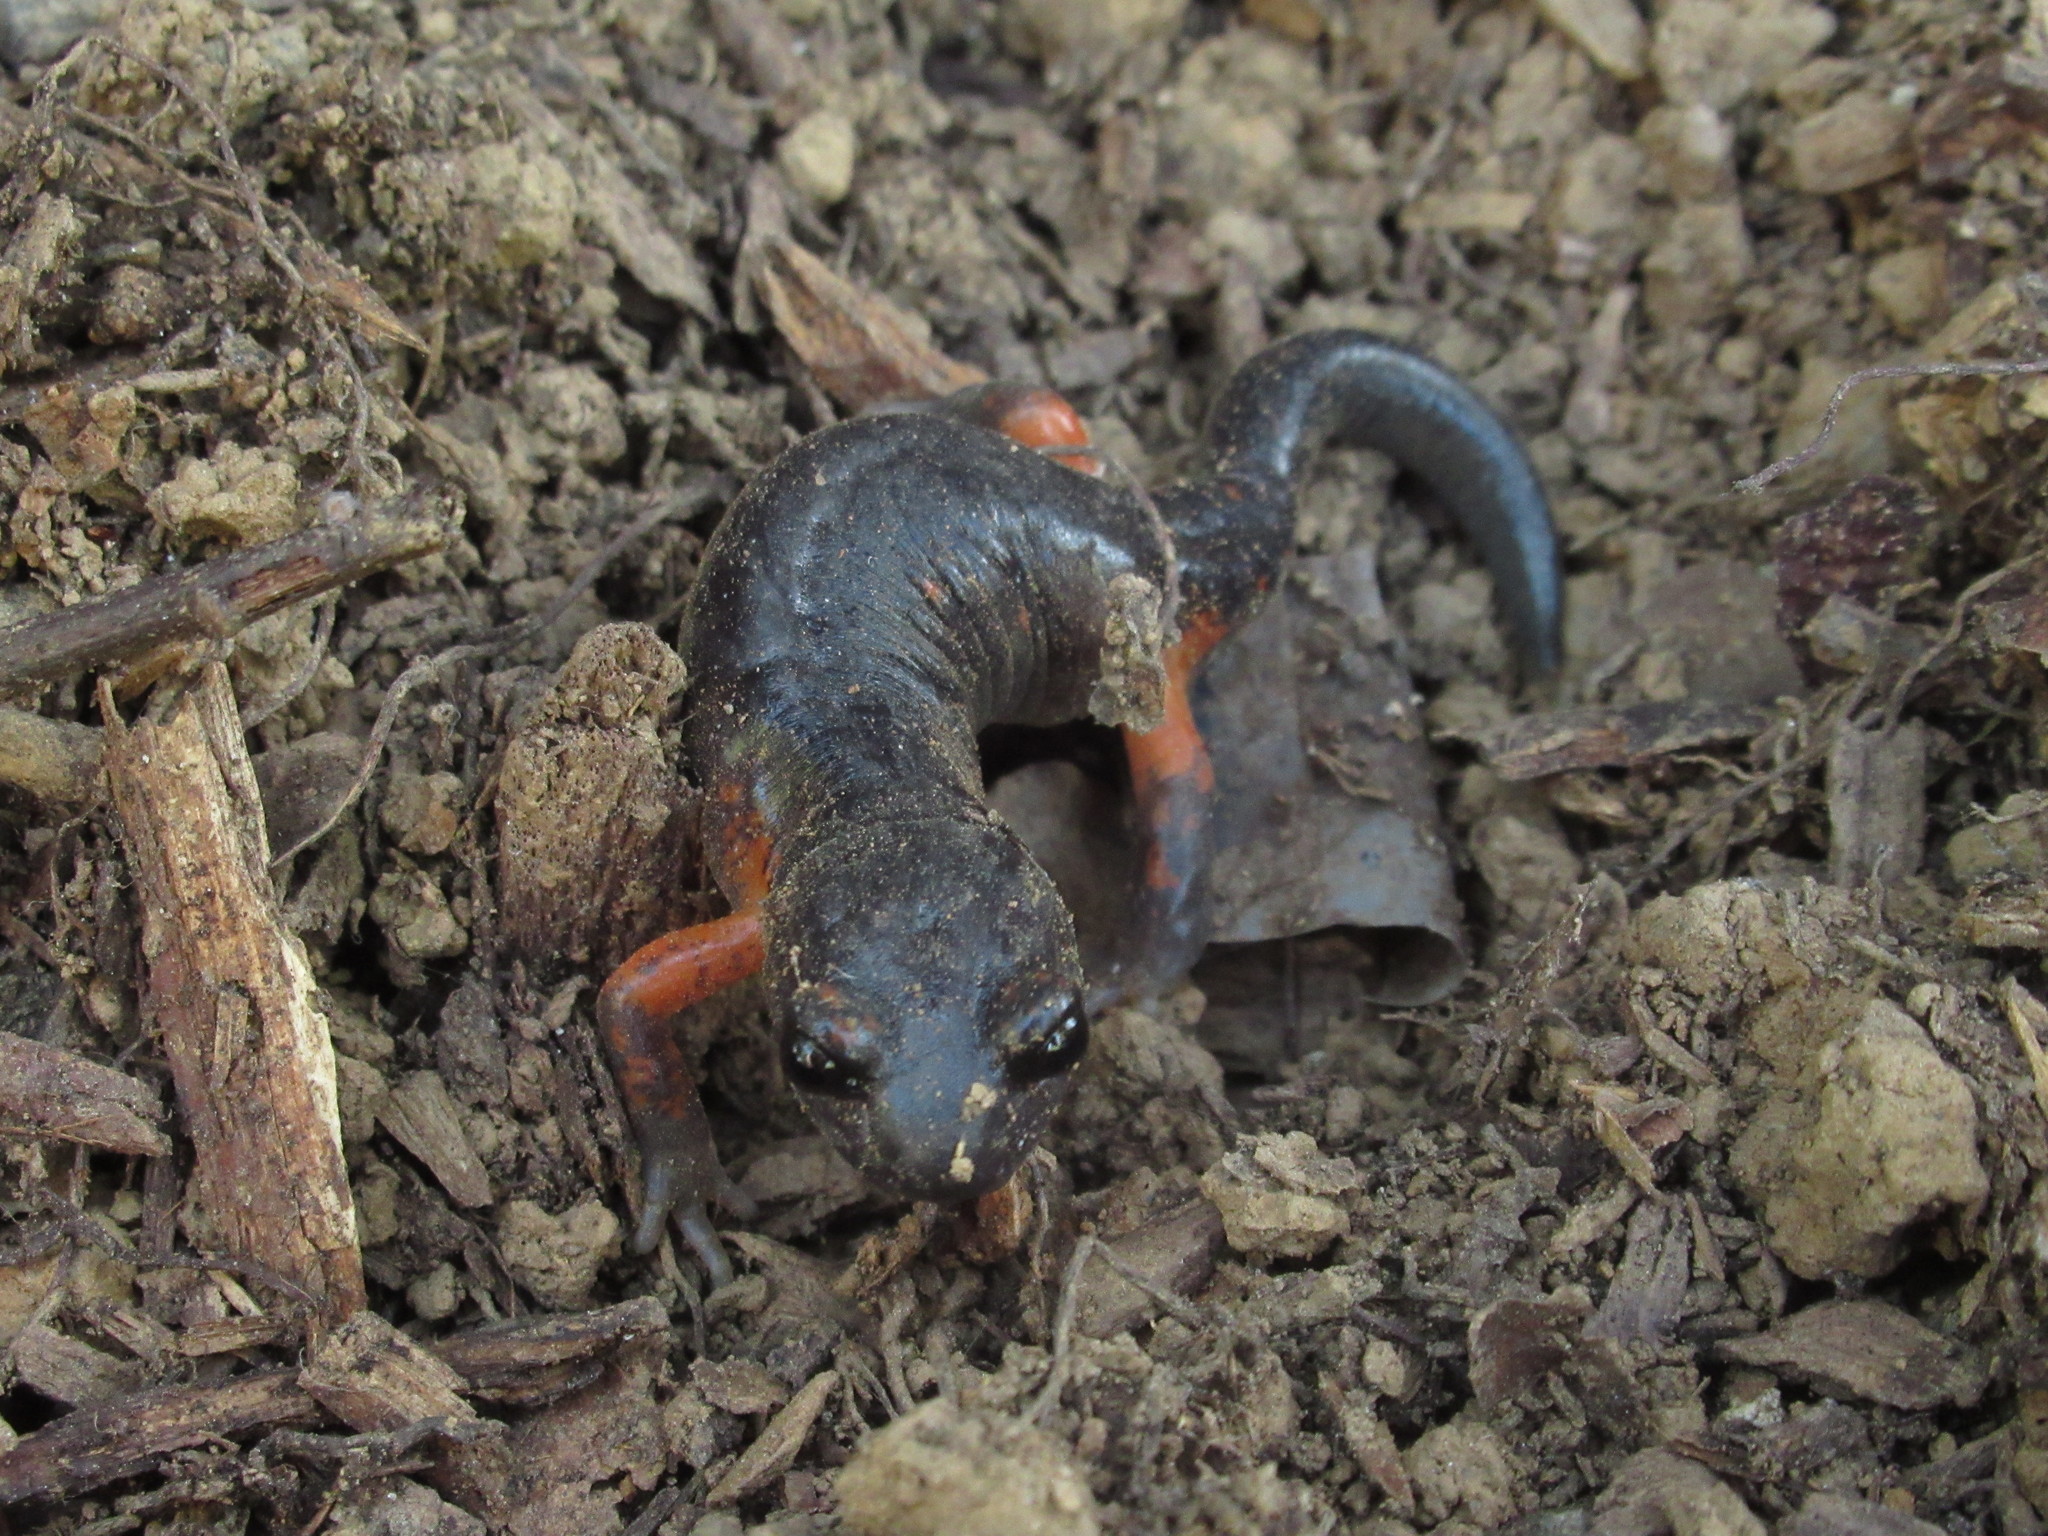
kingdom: Animalia
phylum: Chordata
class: Amphibia
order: Caudata
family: Plethodontidae
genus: Ensatina
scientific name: Ensatina eschscholtzii
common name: Ensatina
